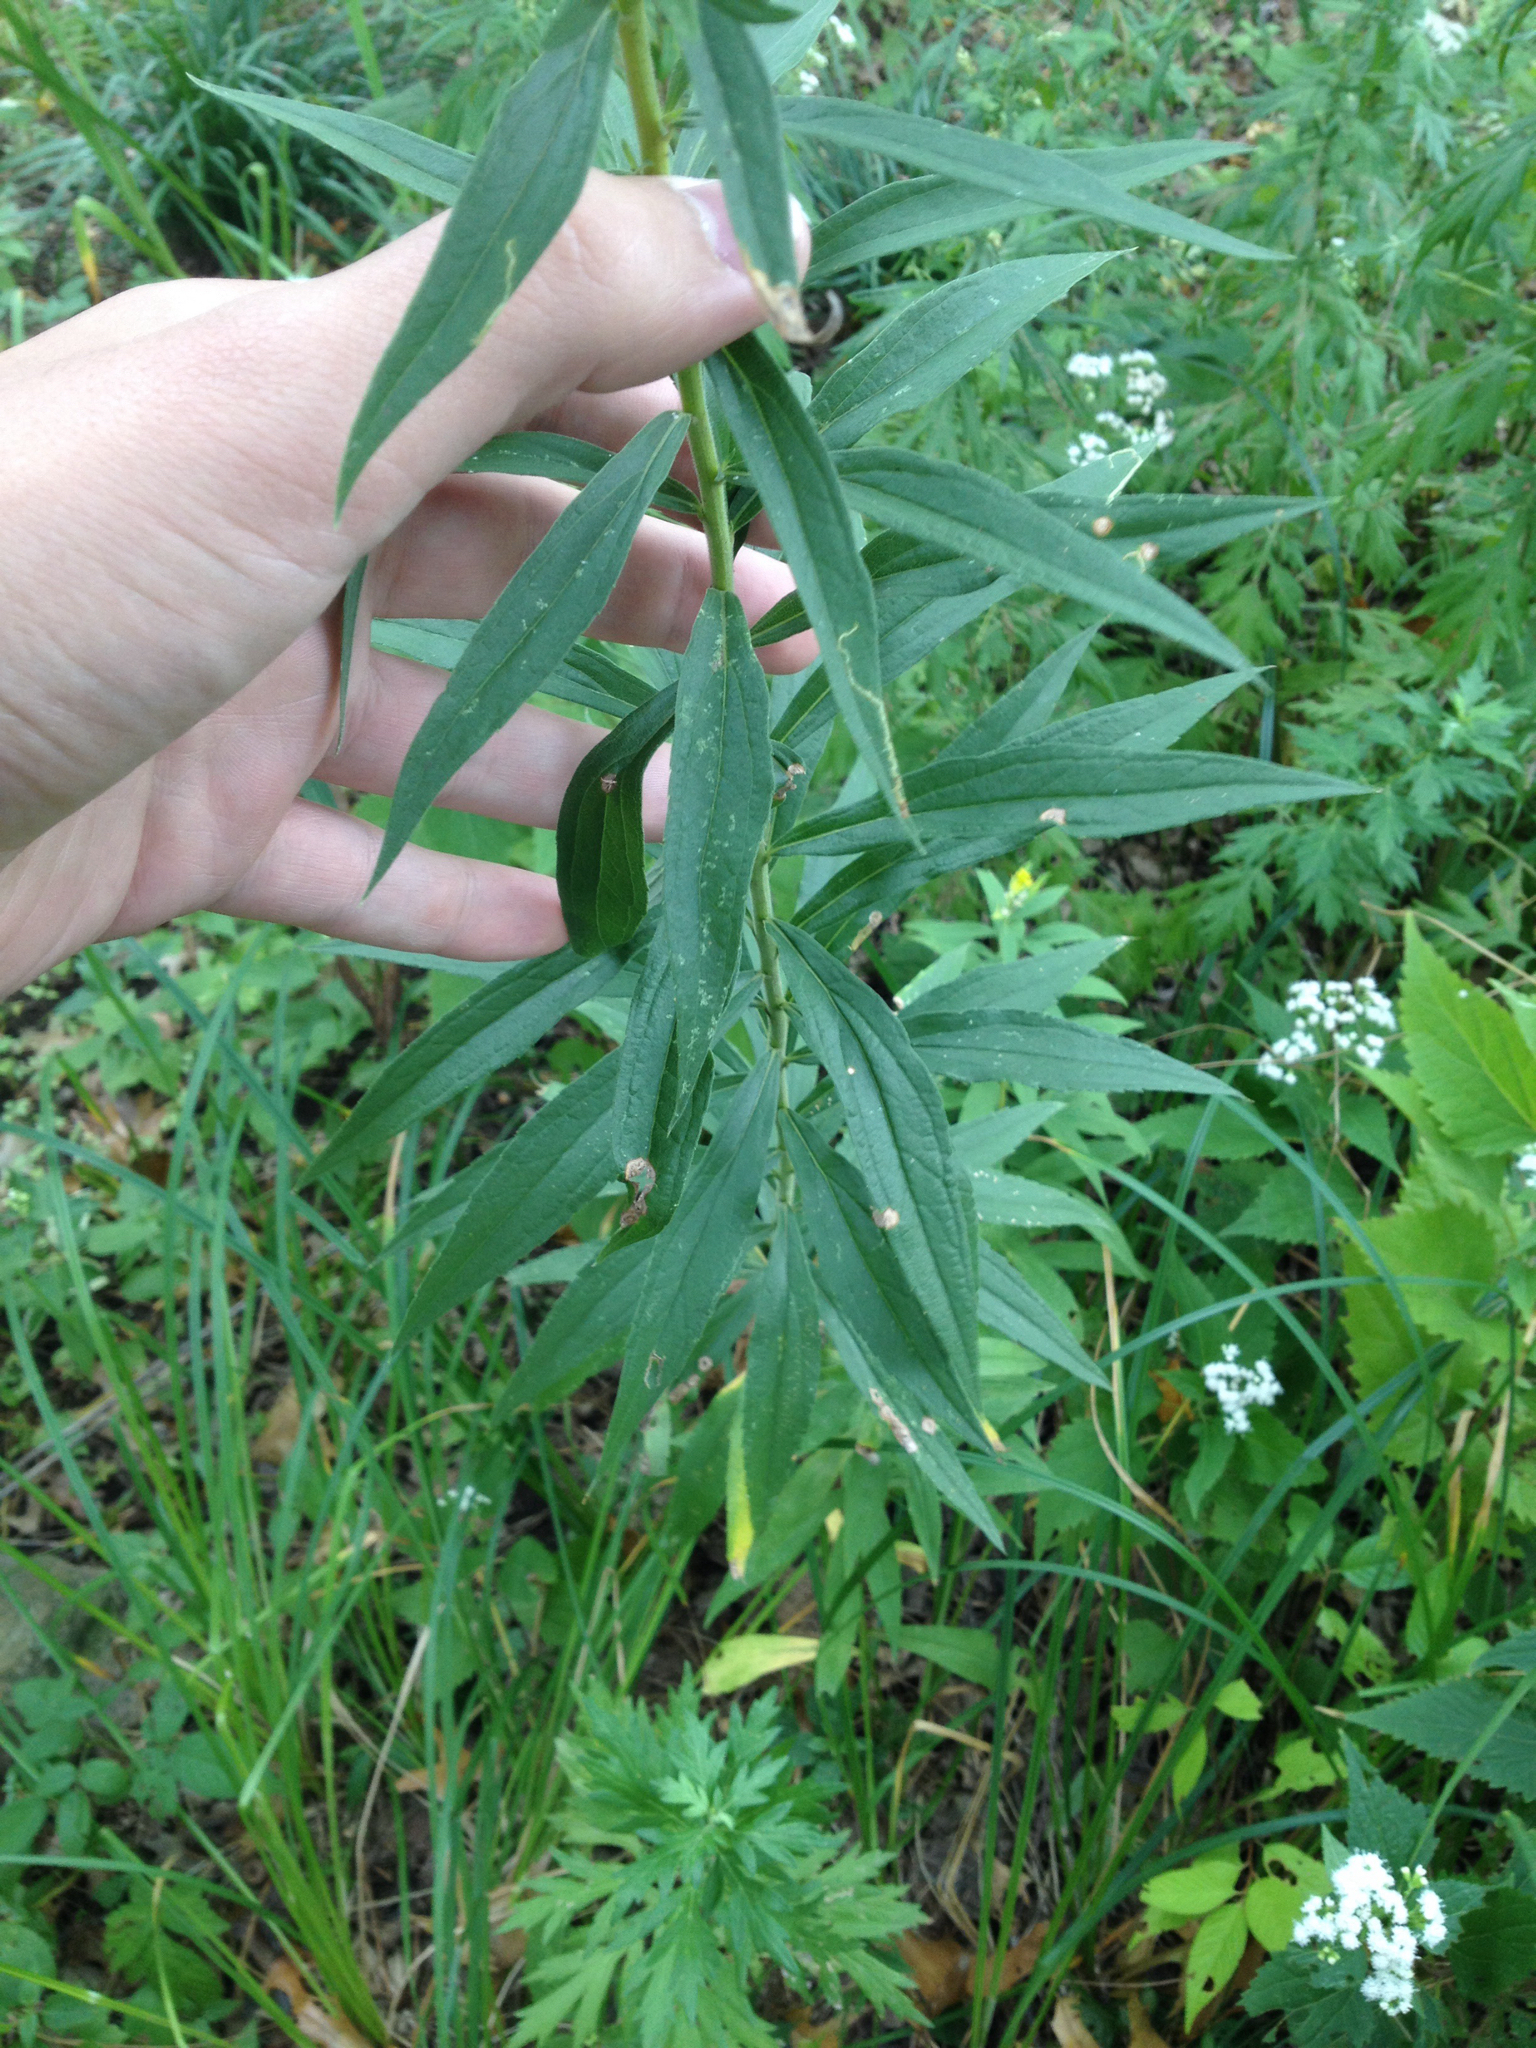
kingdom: Plantae
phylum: Tracheophyta
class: Magnoliopsida
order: Asterales
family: Asteraceae
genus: Solidago
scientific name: Solidago canadensis
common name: Canada goldenrod
